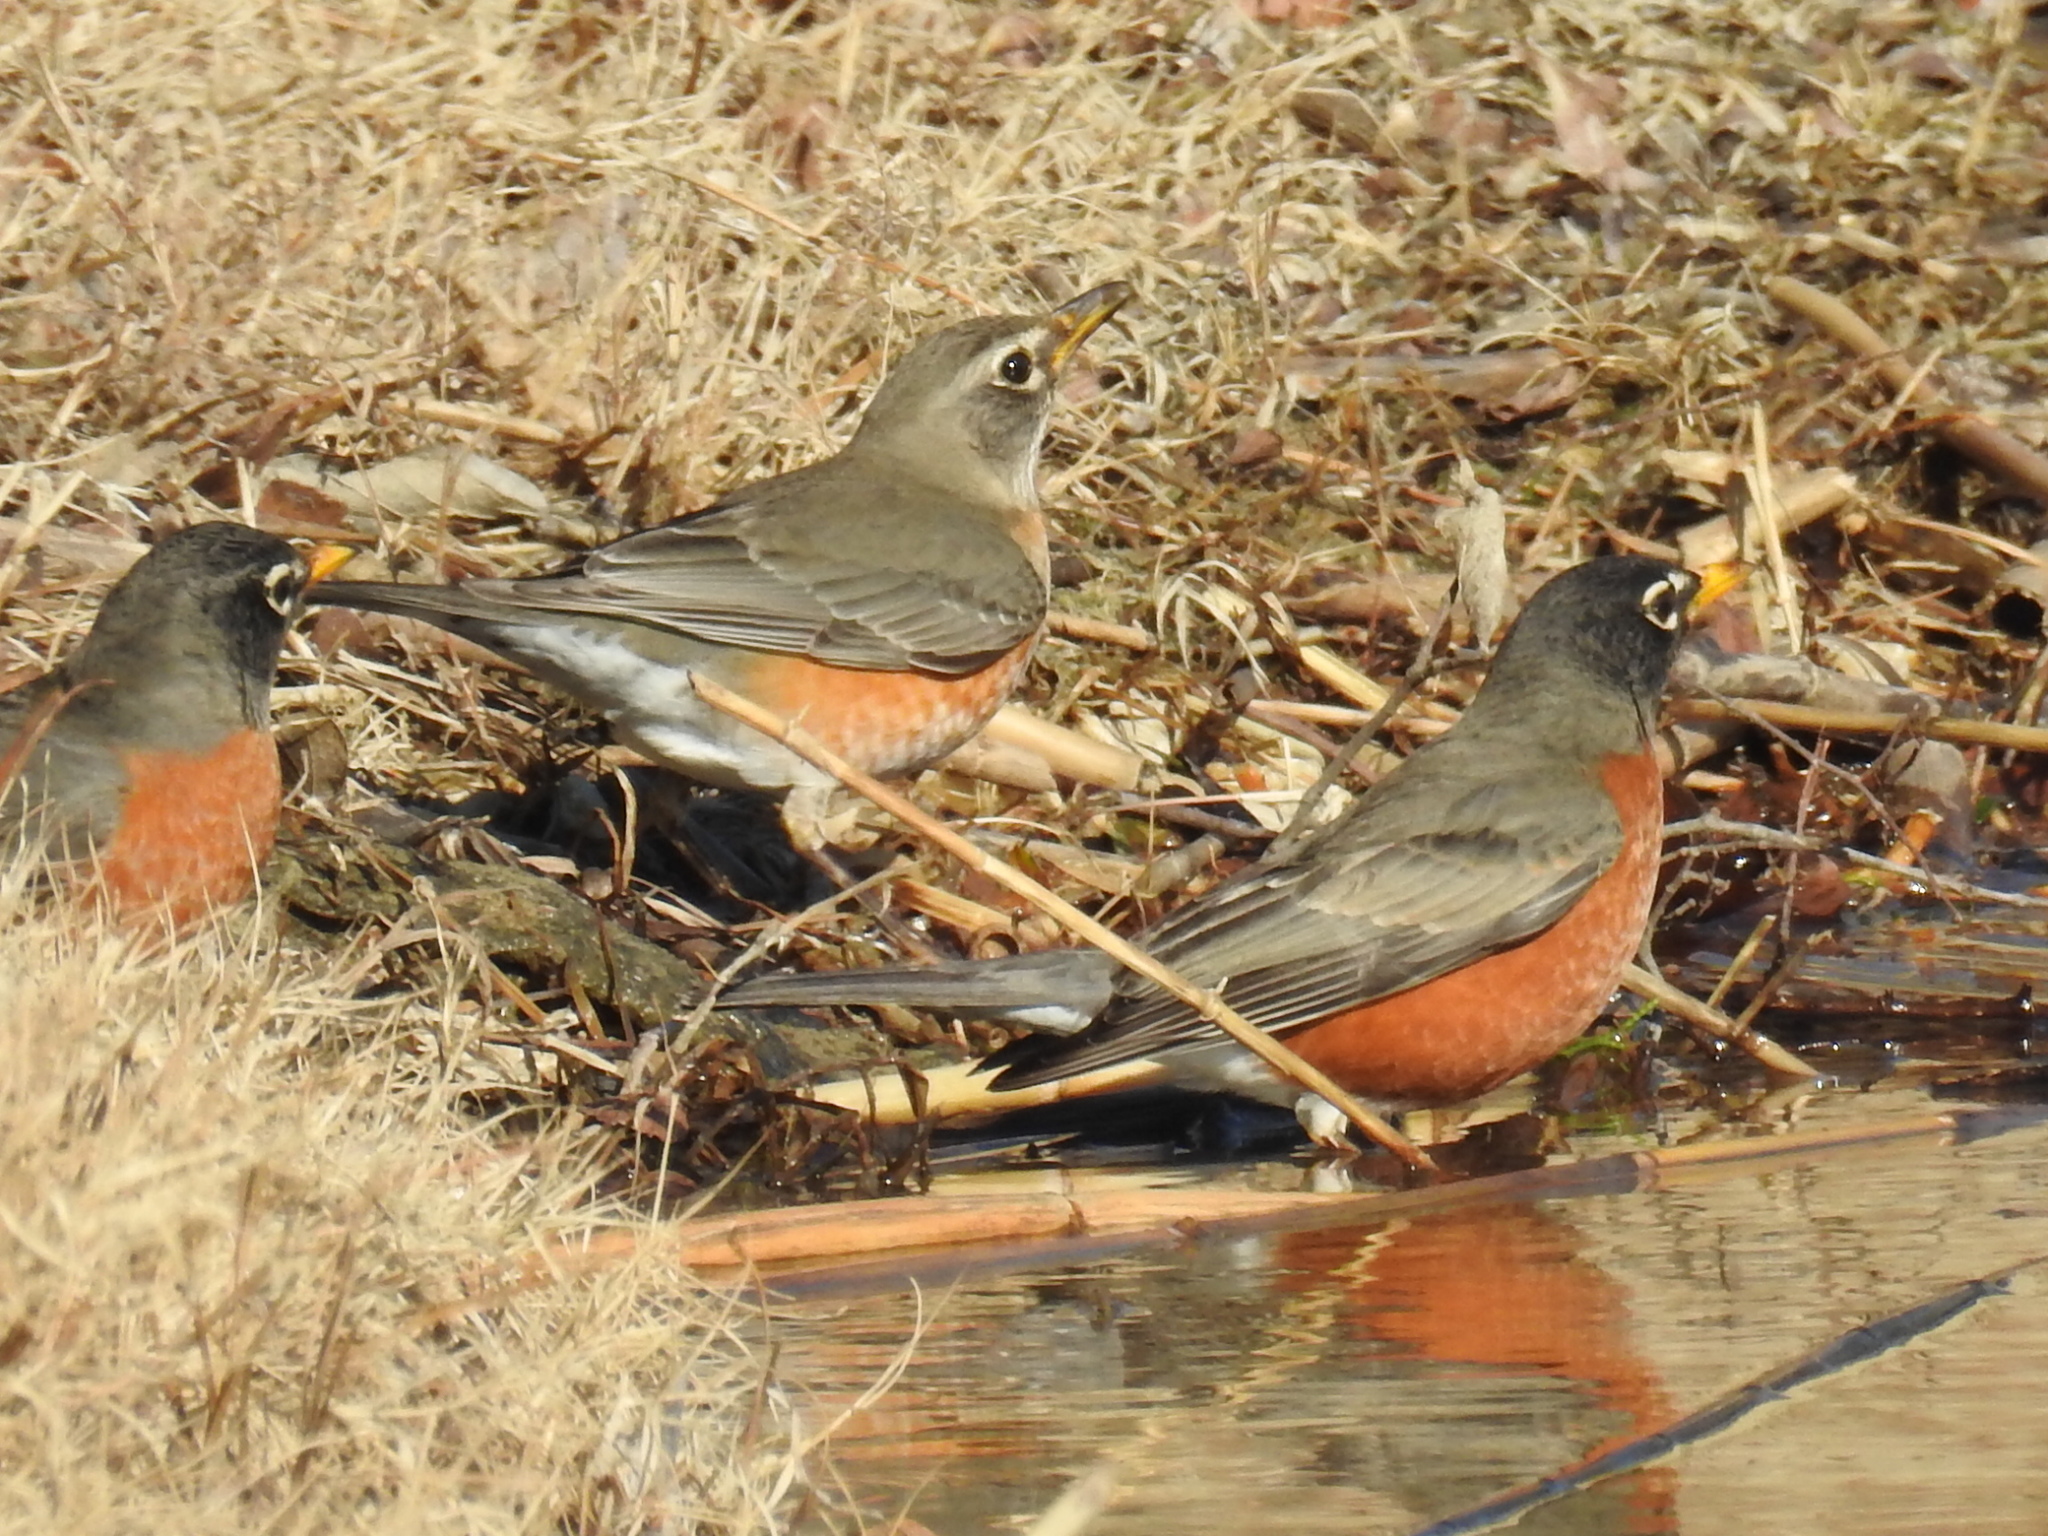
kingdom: Animalia
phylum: Chordata
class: Aves
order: Passeriformes
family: Turdidae
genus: Turdus
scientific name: Turdus migratorius
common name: American robin
